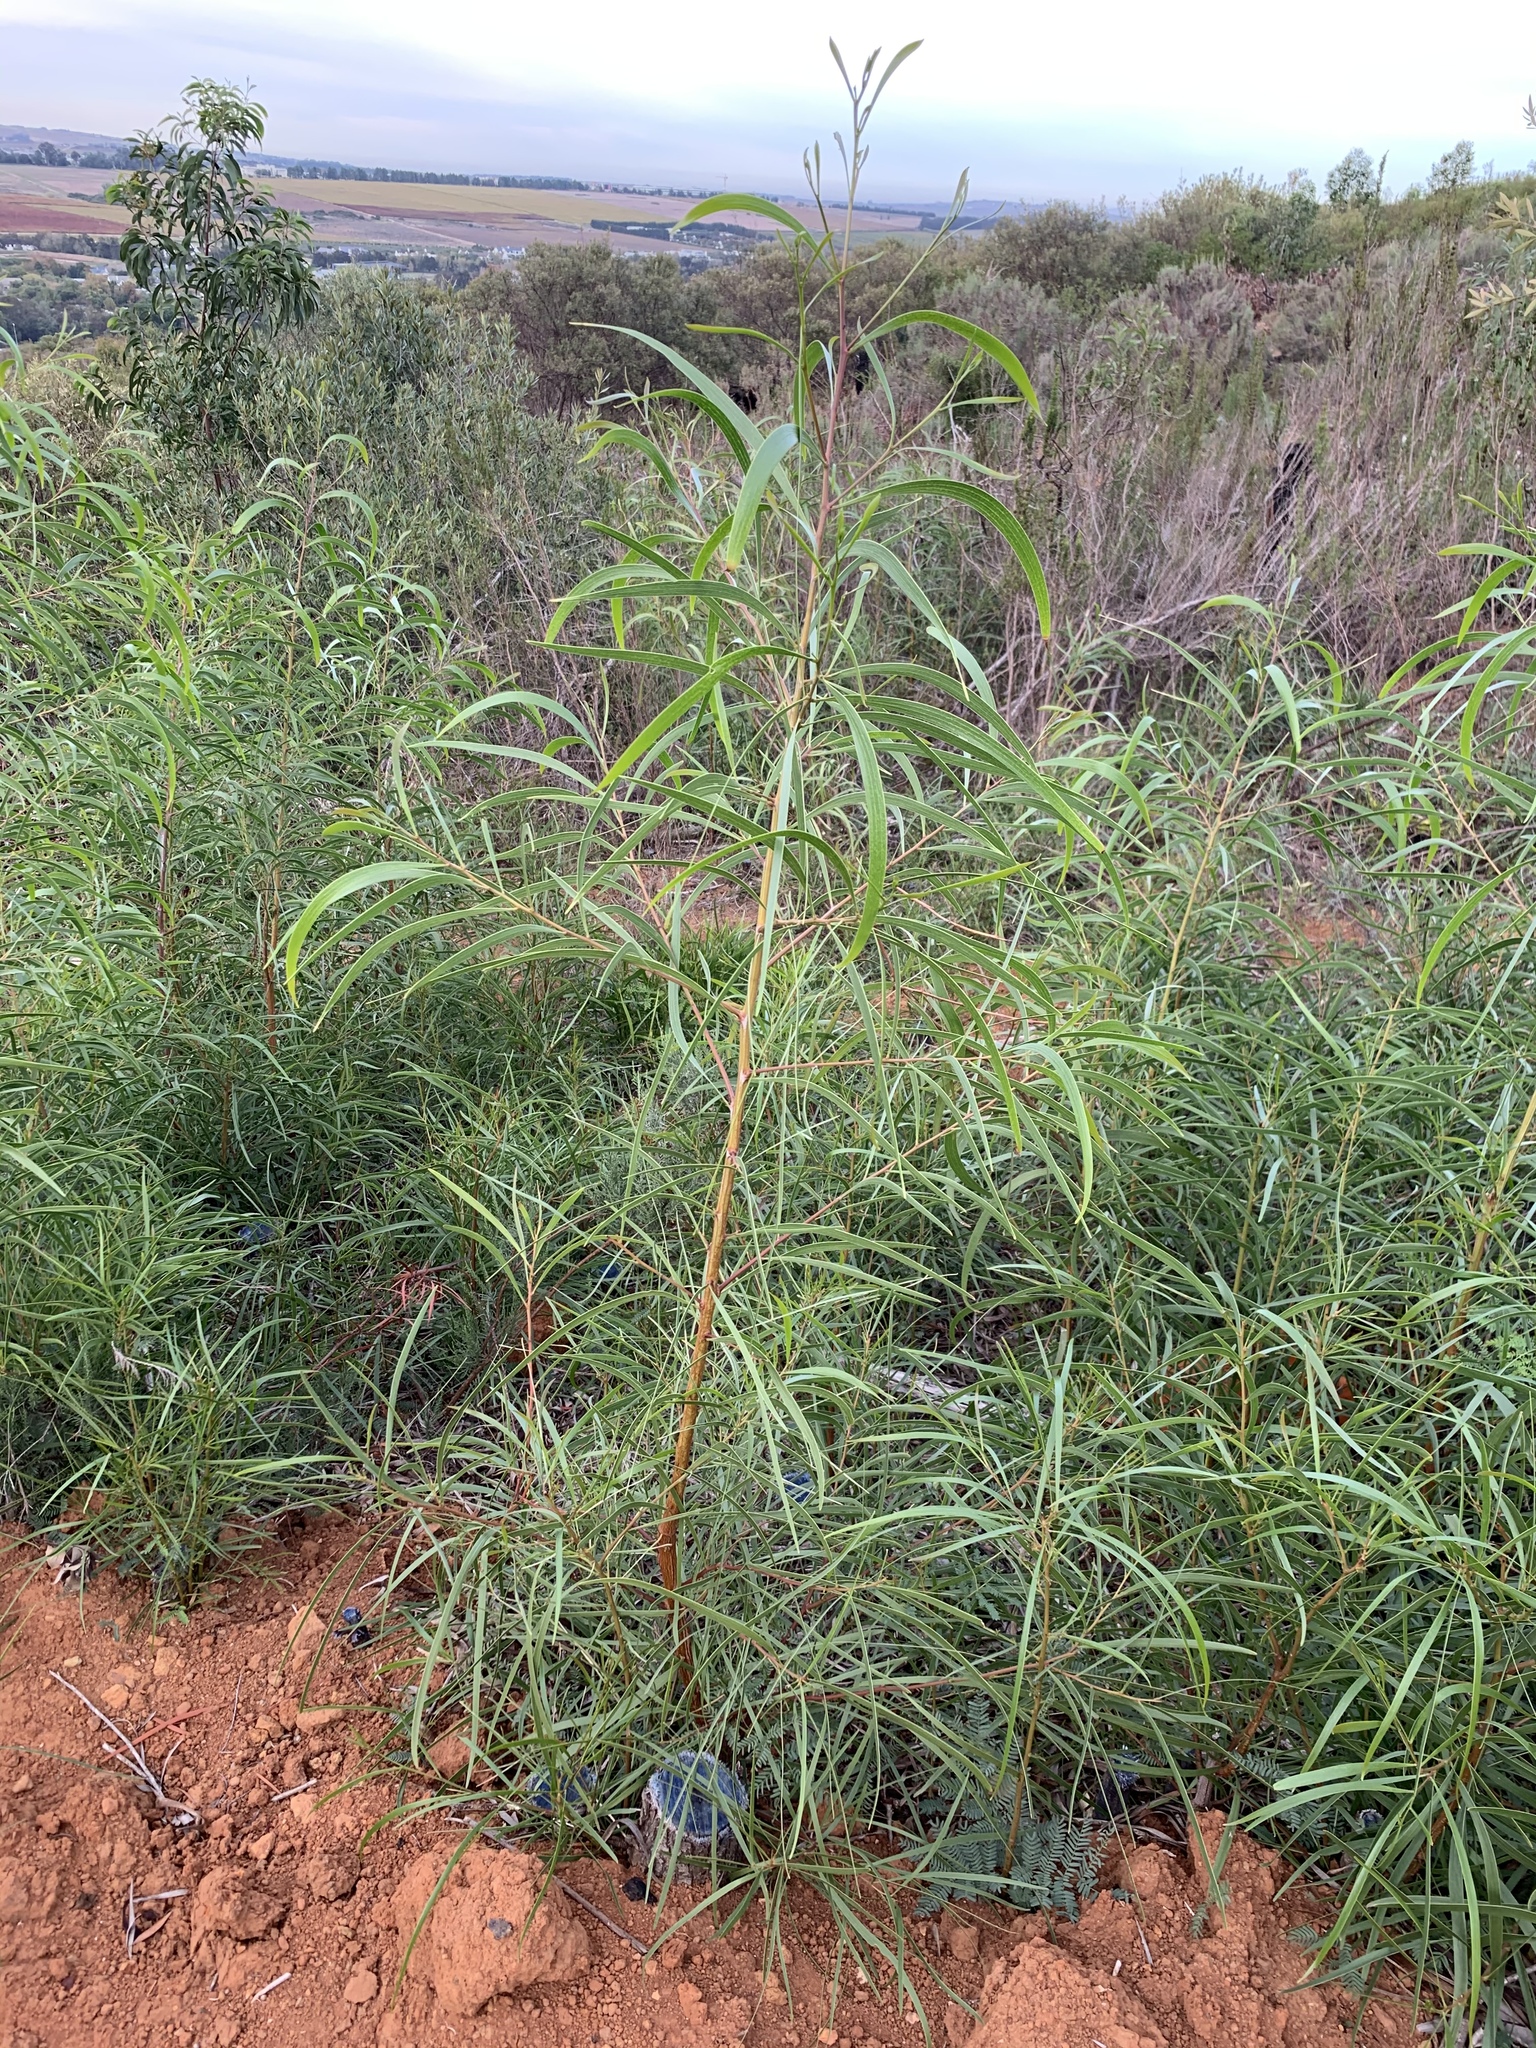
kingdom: Plantae
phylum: Tracheophyta
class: Magnoliopsida
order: Fabales
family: Fabaceae
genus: Acacia
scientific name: Acacia implexa
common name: Black wattle
